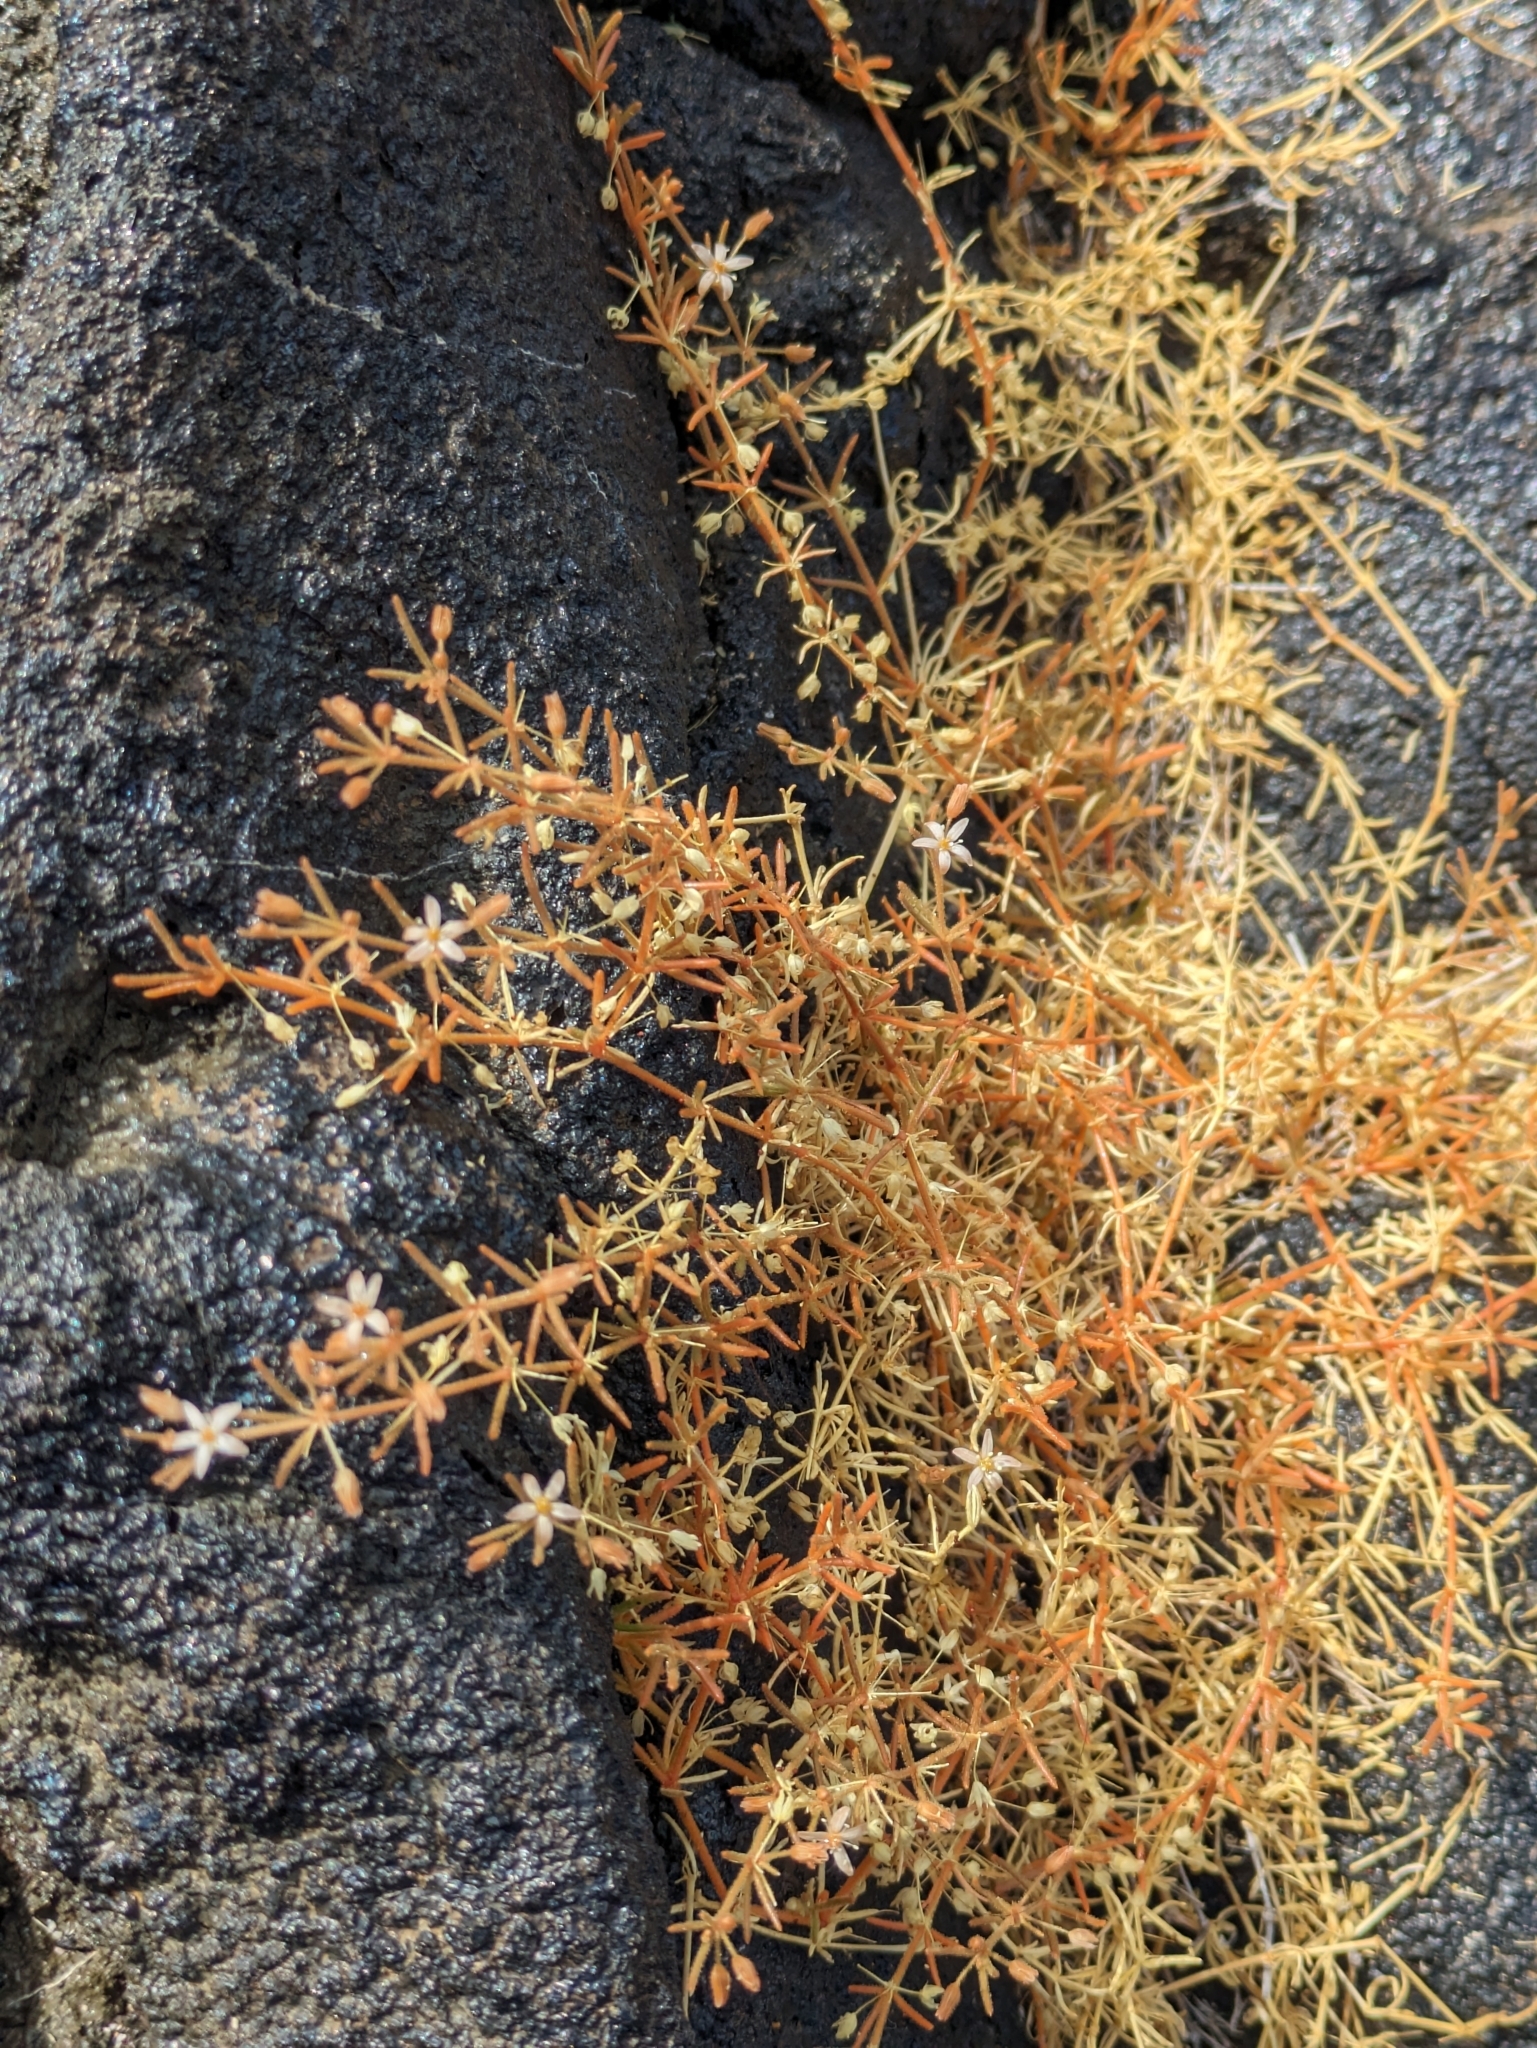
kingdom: Plantae
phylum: Tracheophyta
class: Magnoliopsida
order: Caryophyllales
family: Molluginaceae
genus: Mollugo
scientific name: Mollugo flavescens
